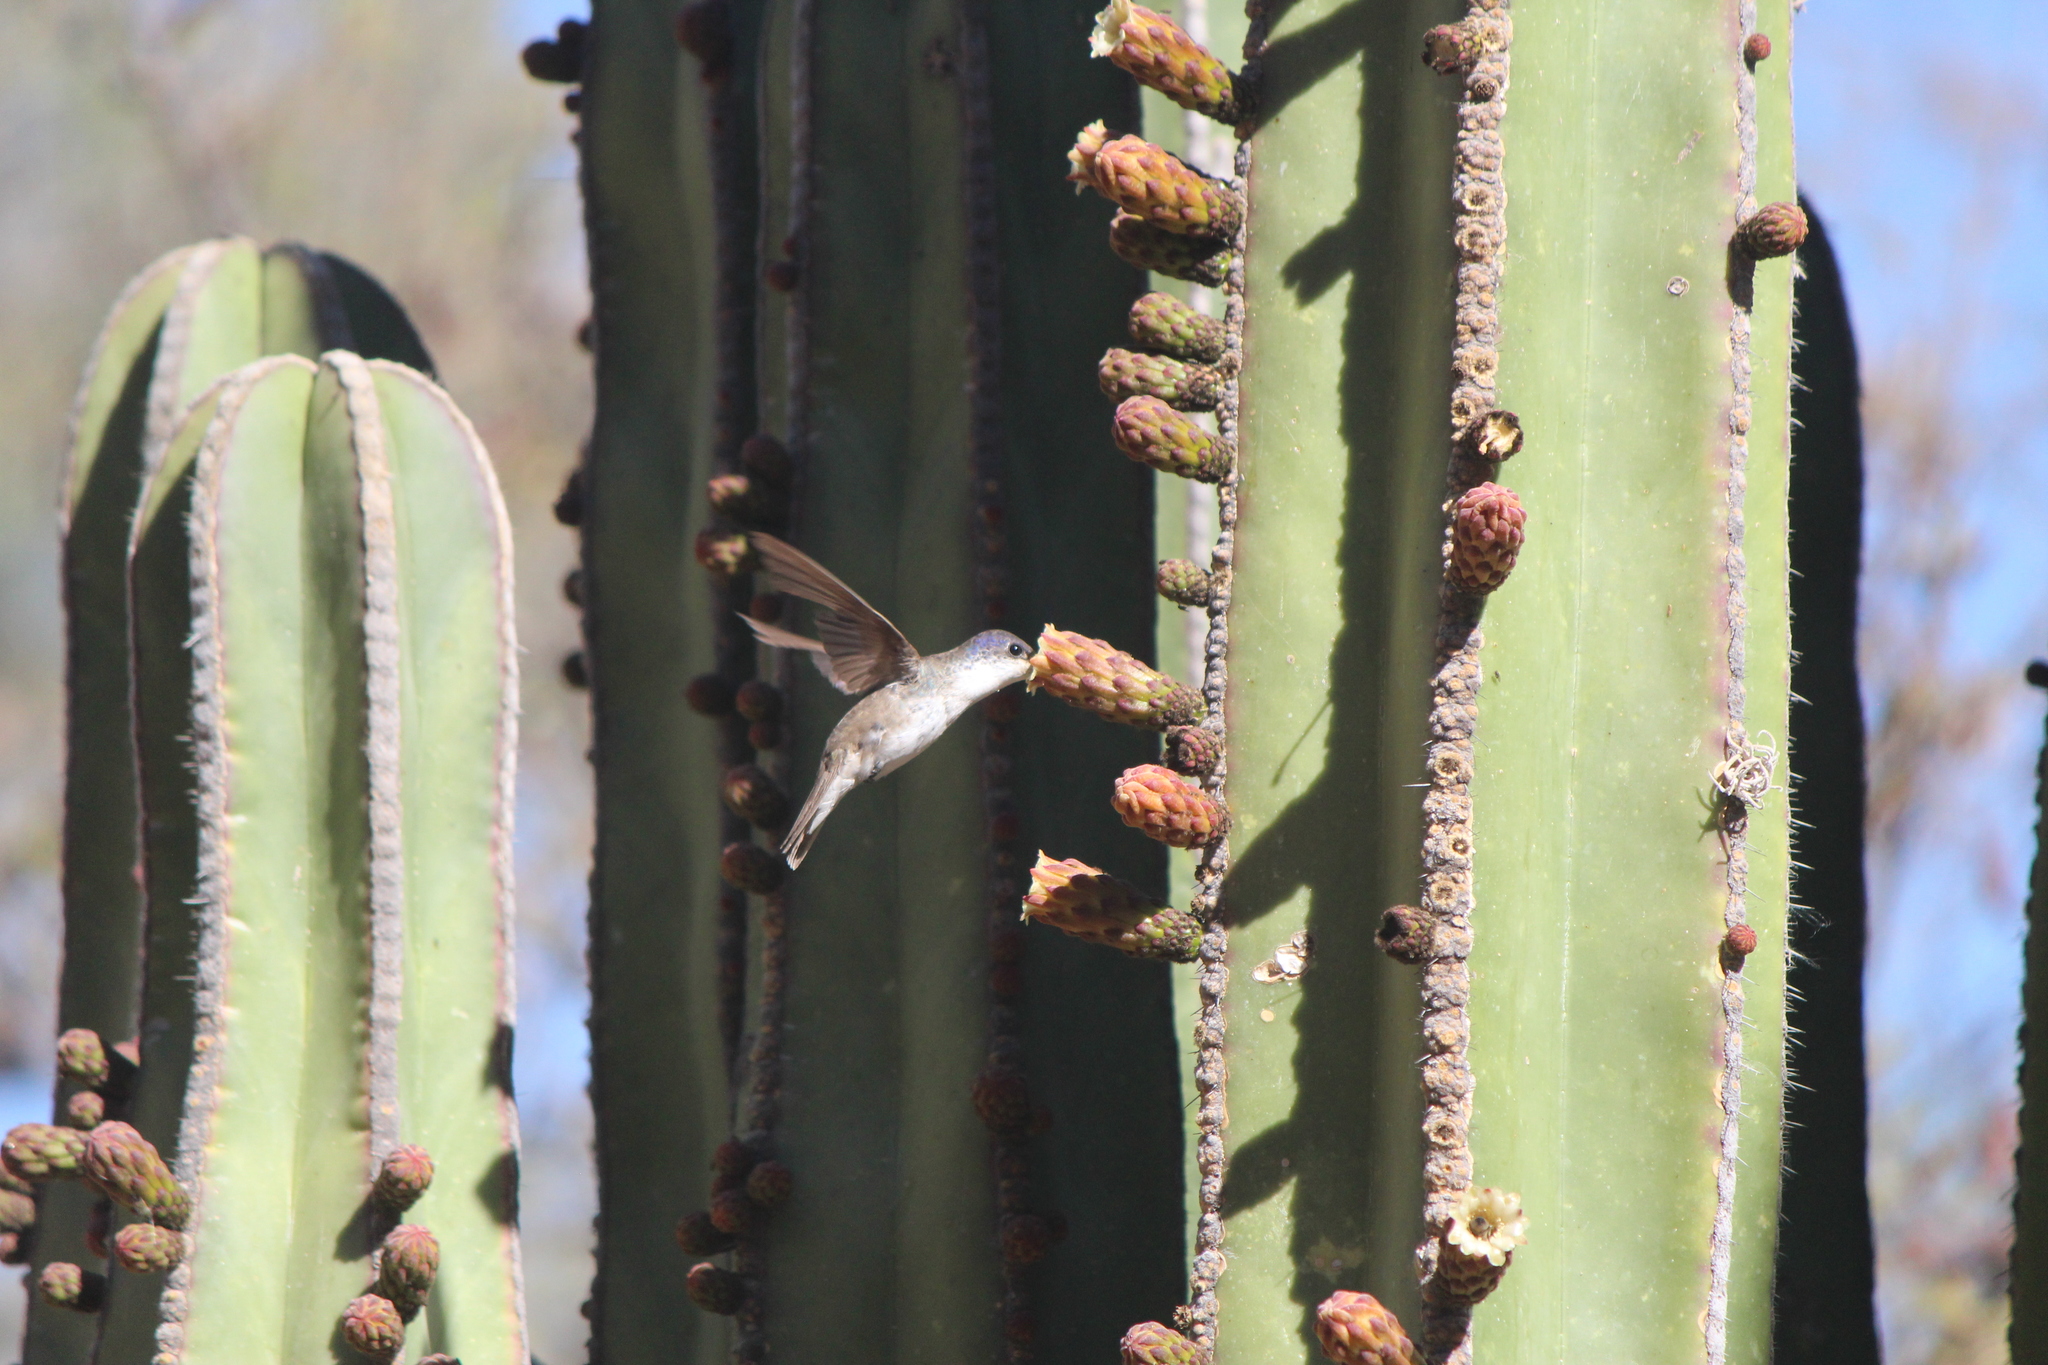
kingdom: Animalia
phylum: Chordata
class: Aves
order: Apodiformes
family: Trochilidae
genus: Leucolia
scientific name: Leucolia violiceps
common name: Violet-crowned hummingbird
